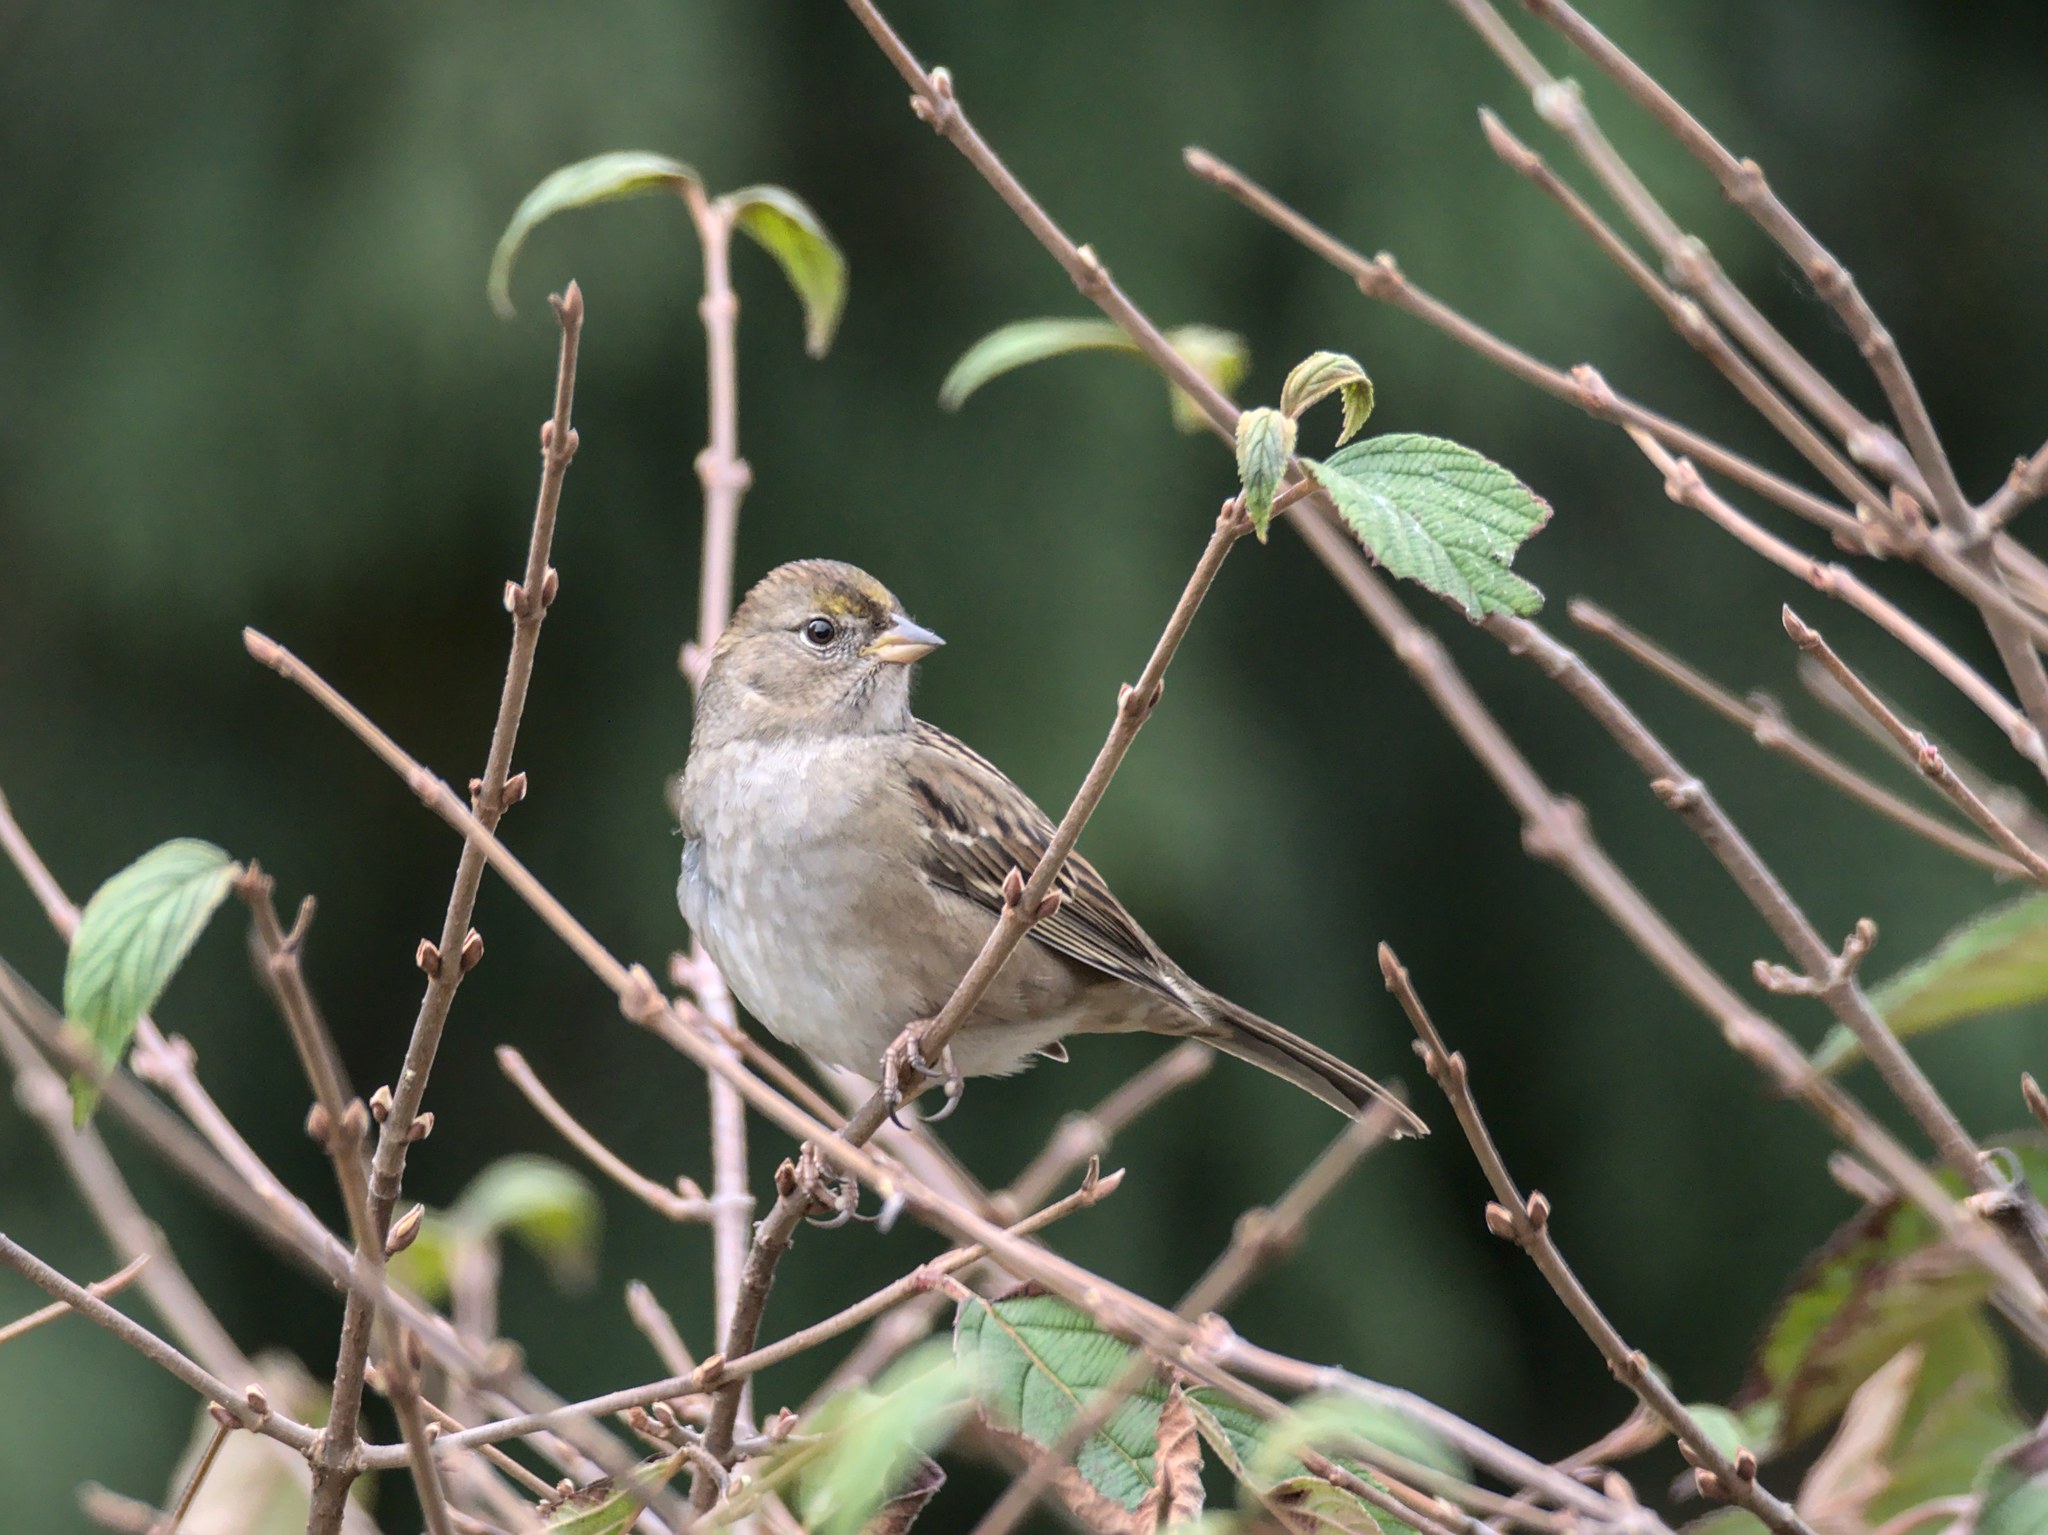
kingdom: Animalia
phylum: Chordata
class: Aves
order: Passeriformes
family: Passerellidae
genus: Zonotrichia
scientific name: Zonotrichia atricapilla
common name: Golden-crowned sparrow
